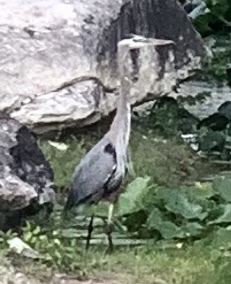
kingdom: Animalia
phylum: Chordata
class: Aves
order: Pelecaniformes
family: Ardeidae
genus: Ardea
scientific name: Ardea herodias
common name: Great blue heron
